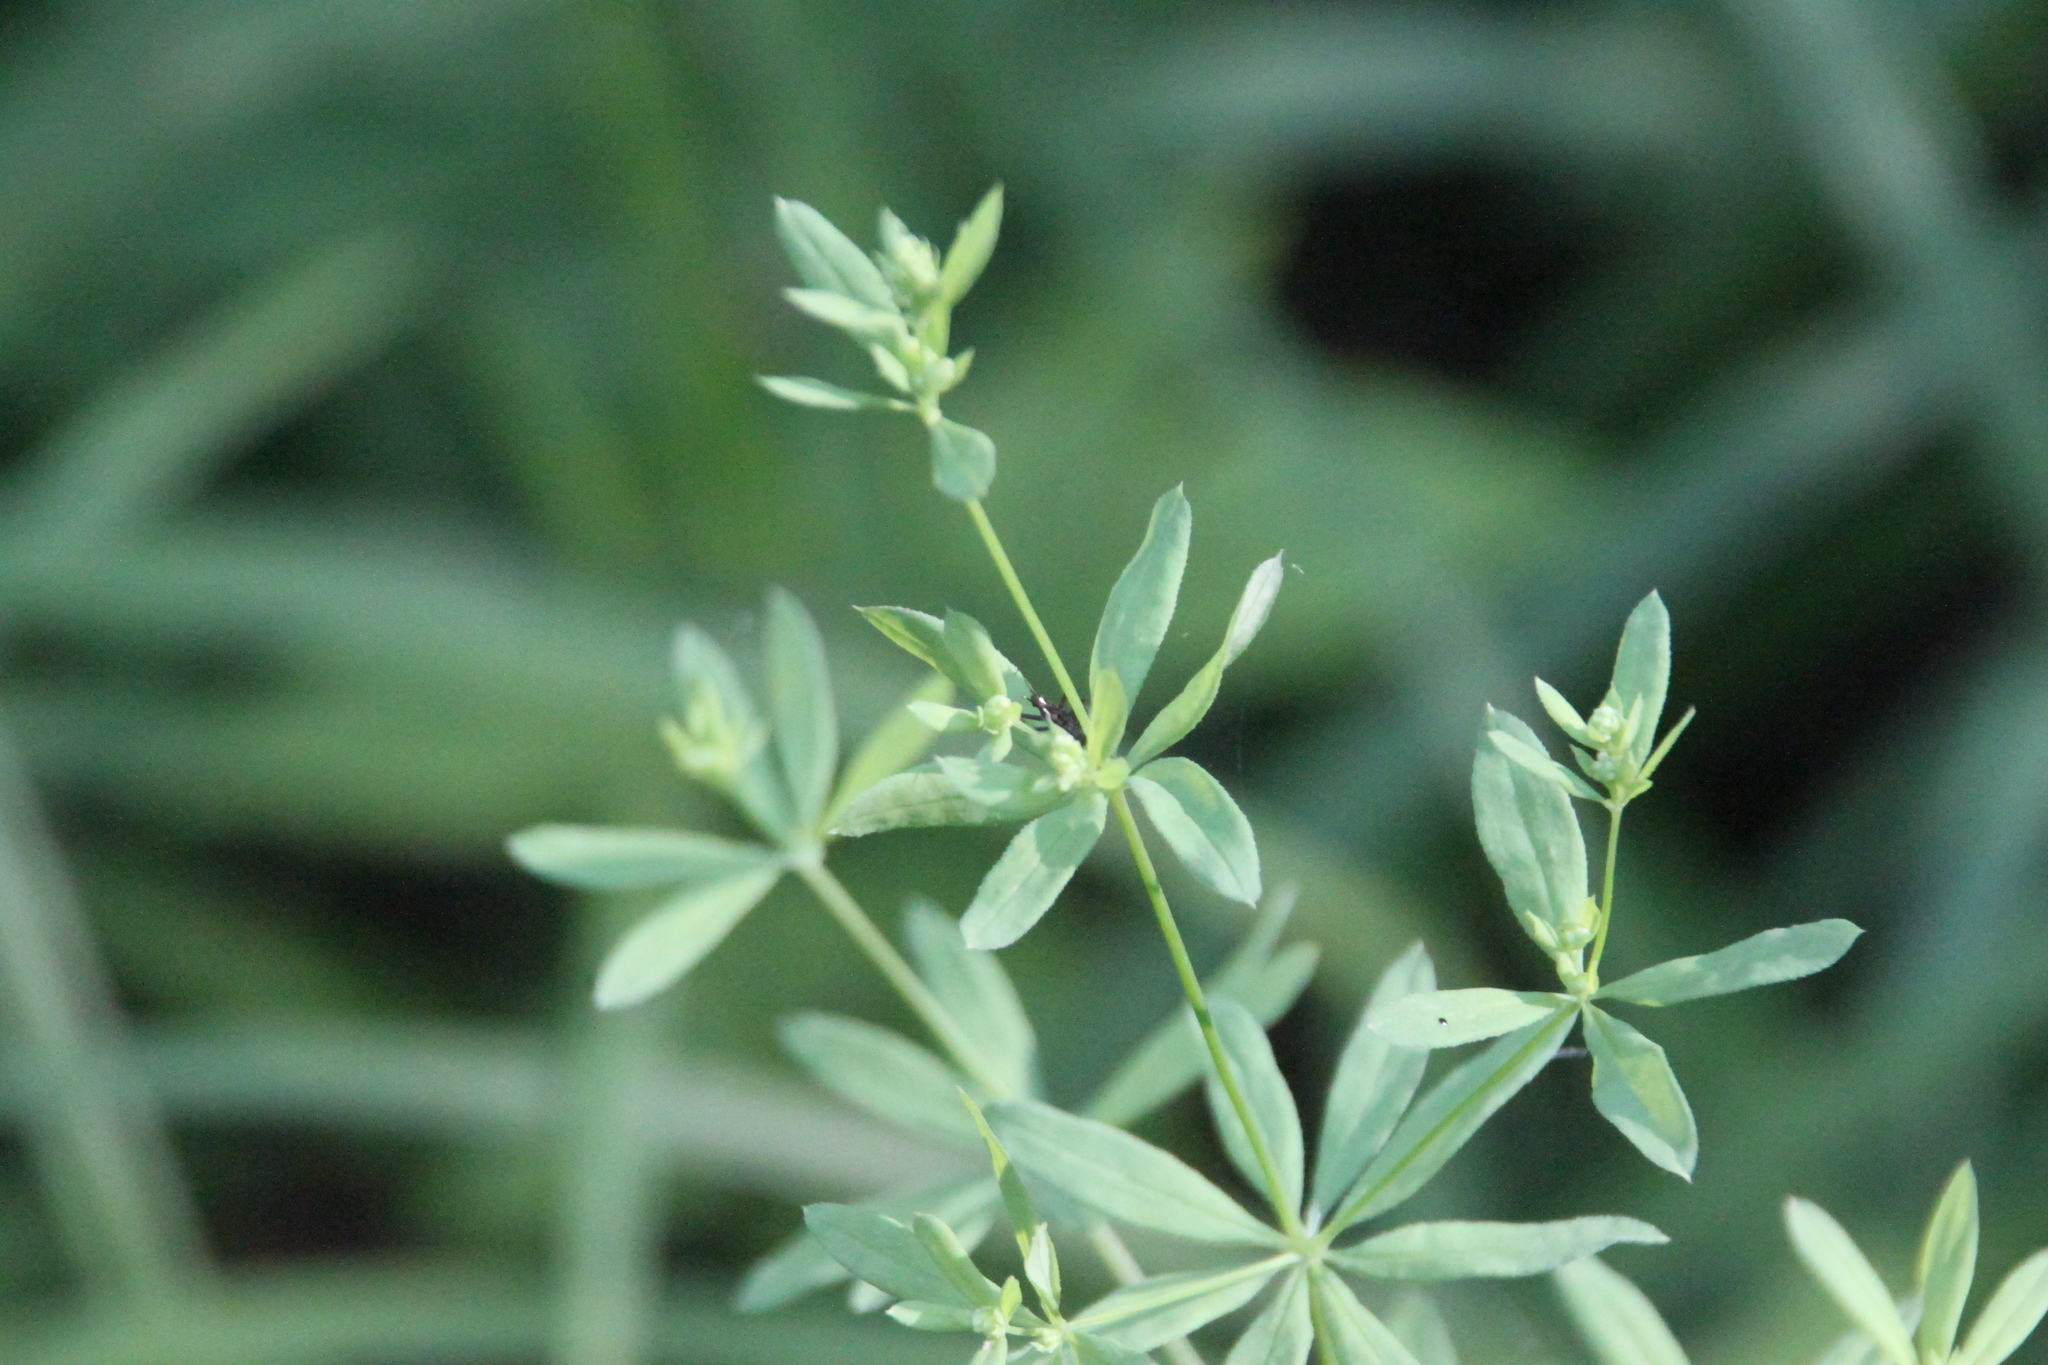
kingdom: Plantae
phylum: Tracheophyta
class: Magnoliopsida
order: Gentianales
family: Rubiaceae
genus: Galium
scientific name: Galium intermedium
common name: Bedstraw
